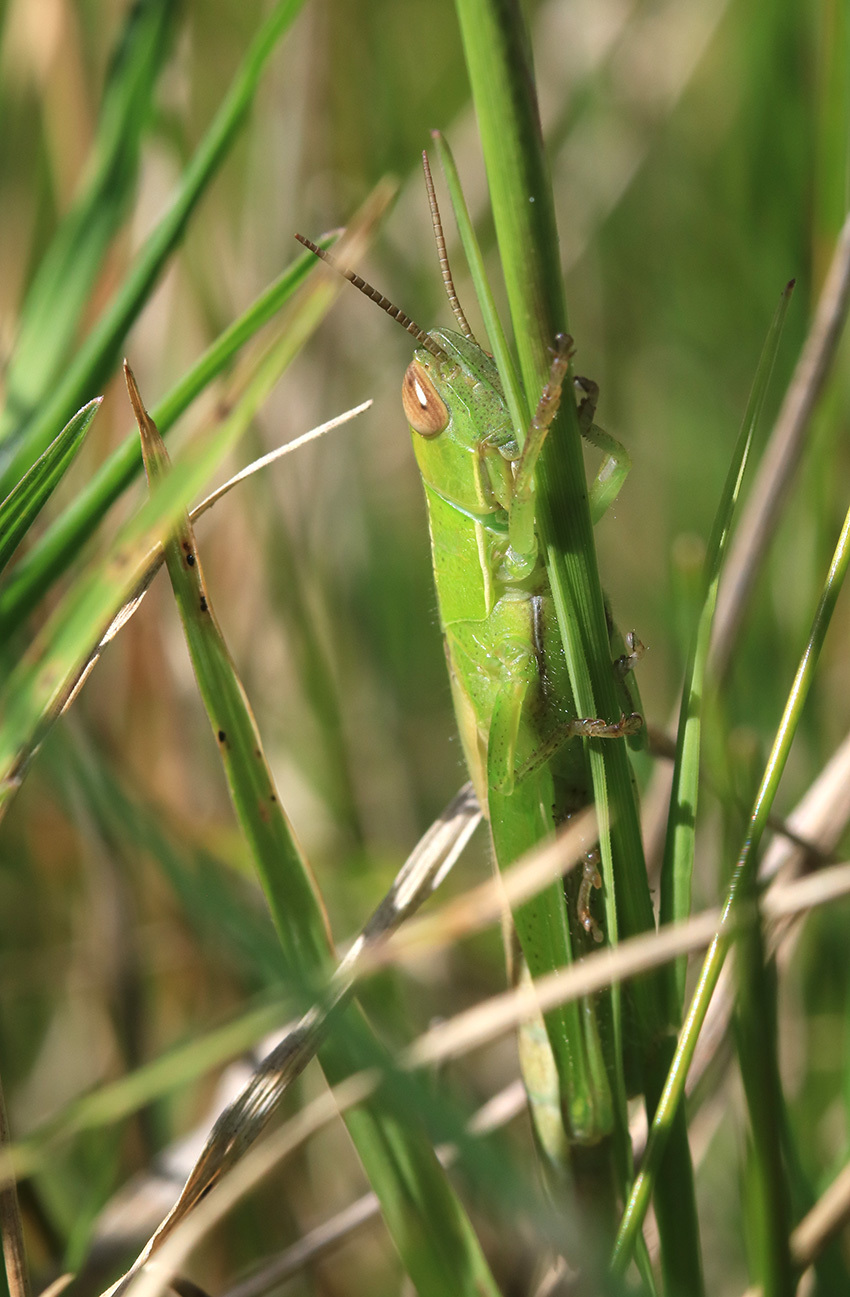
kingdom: Animalia
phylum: Arthropoda
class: Insecta
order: Orthoptera
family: Acrididae
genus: Aleuas
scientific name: Aleuas lineatus
